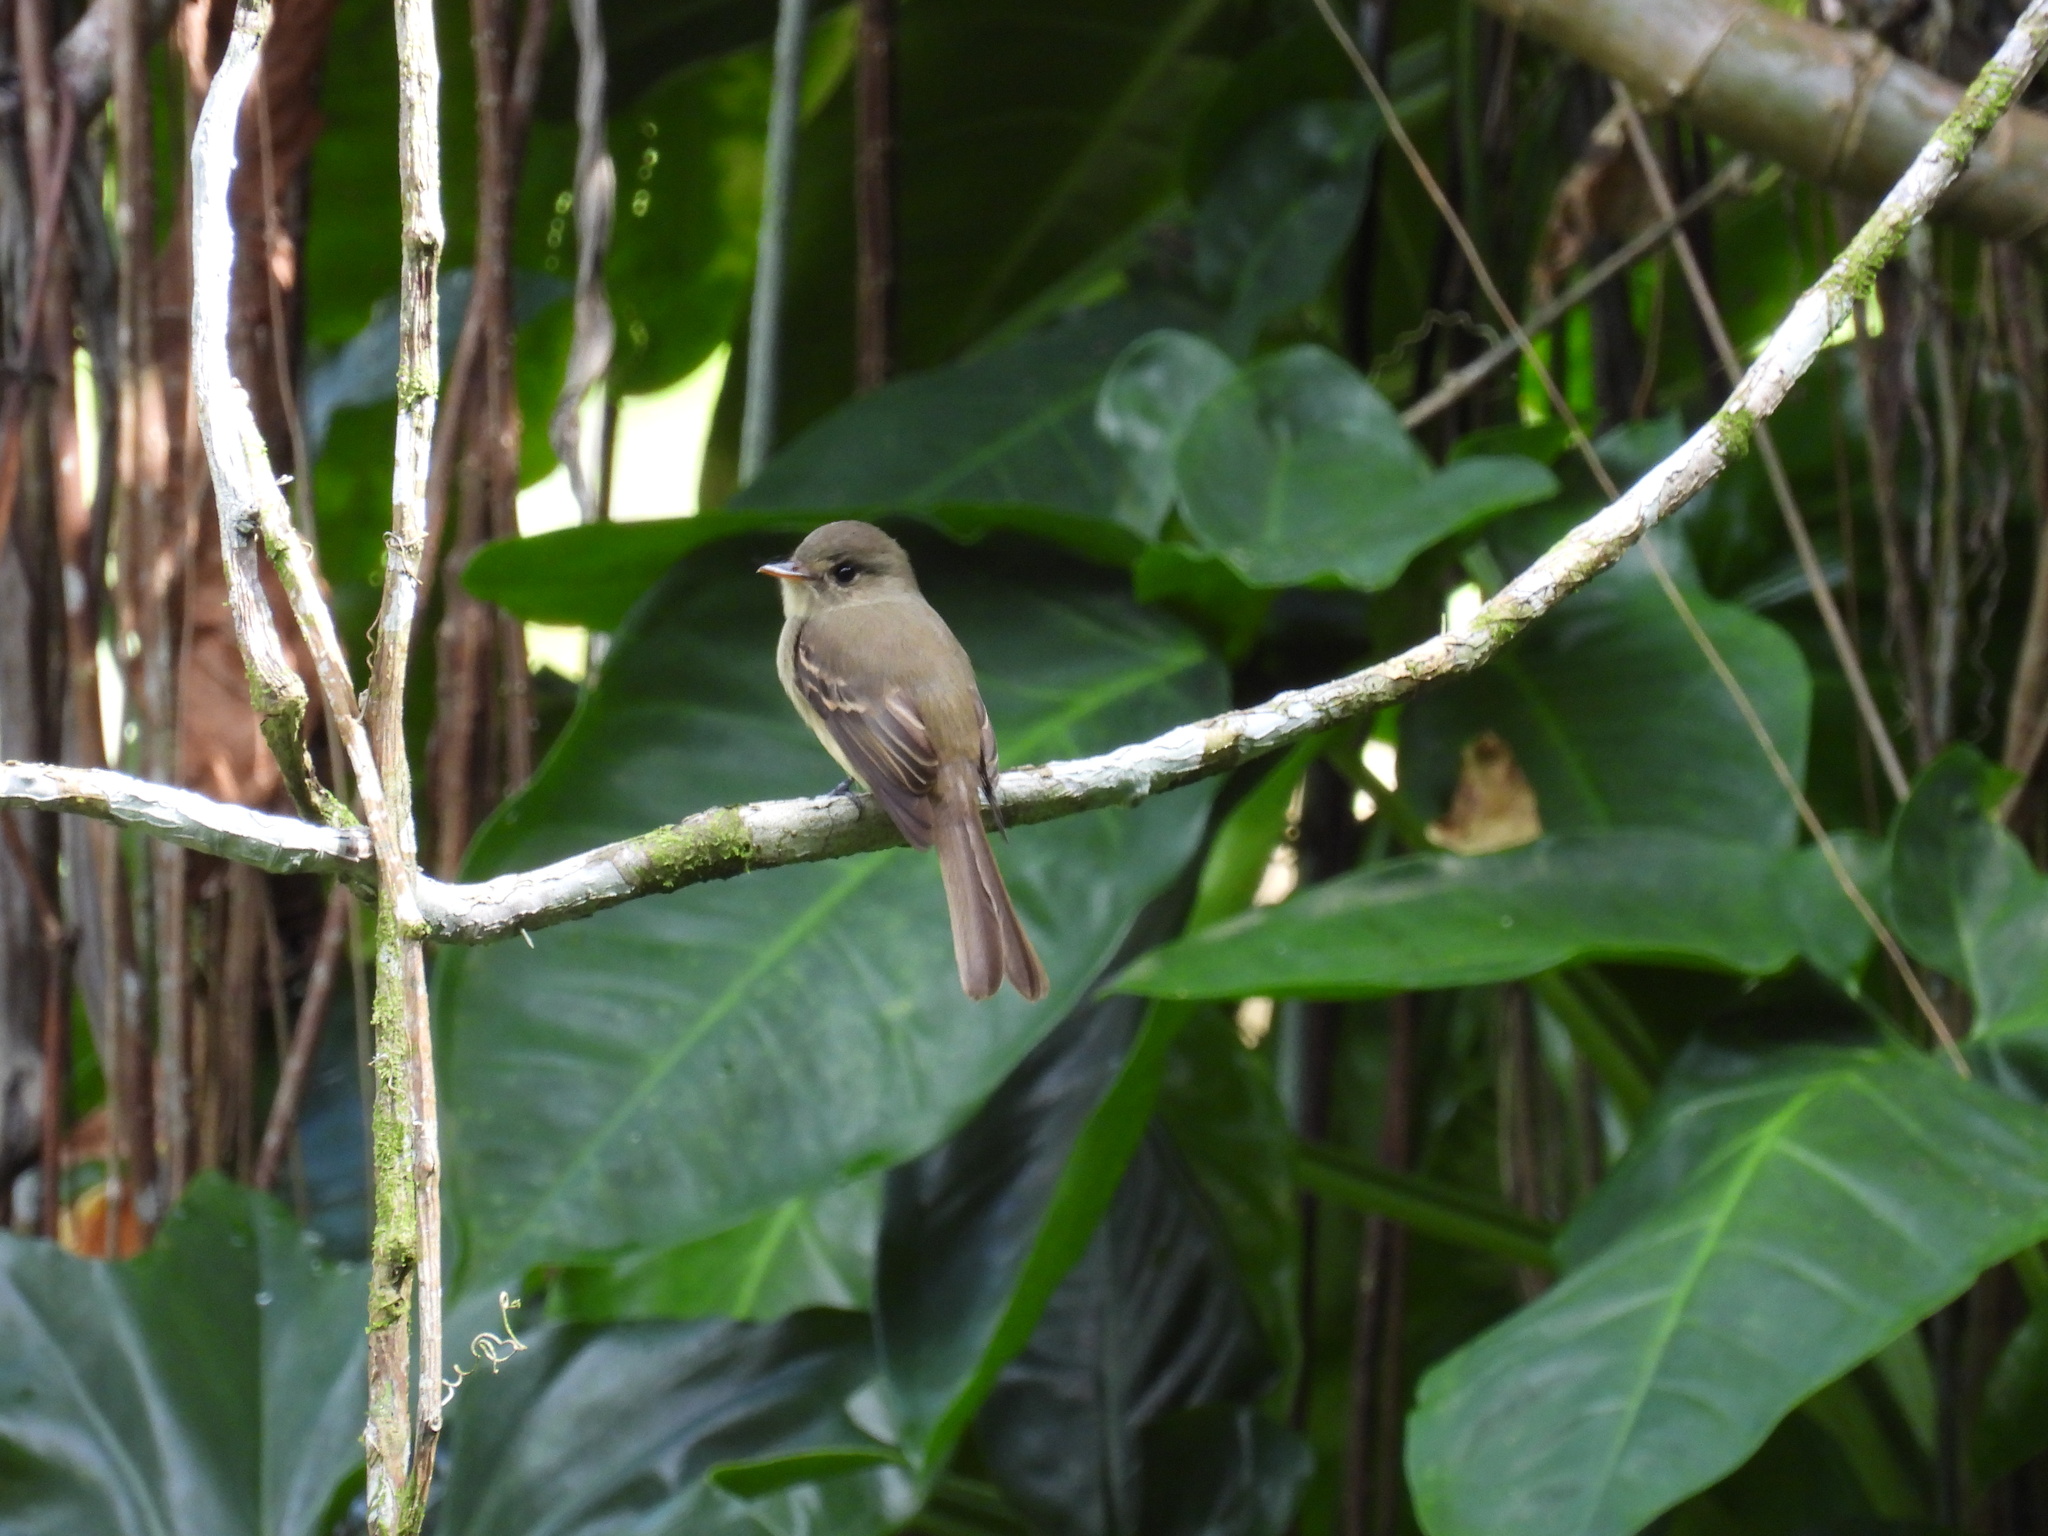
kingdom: Animalia
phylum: Chordata
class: Aves
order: Passeriformes
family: Tyrannidae
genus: Contopus
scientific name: Contopus pallidus
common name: Jamaican pewee
